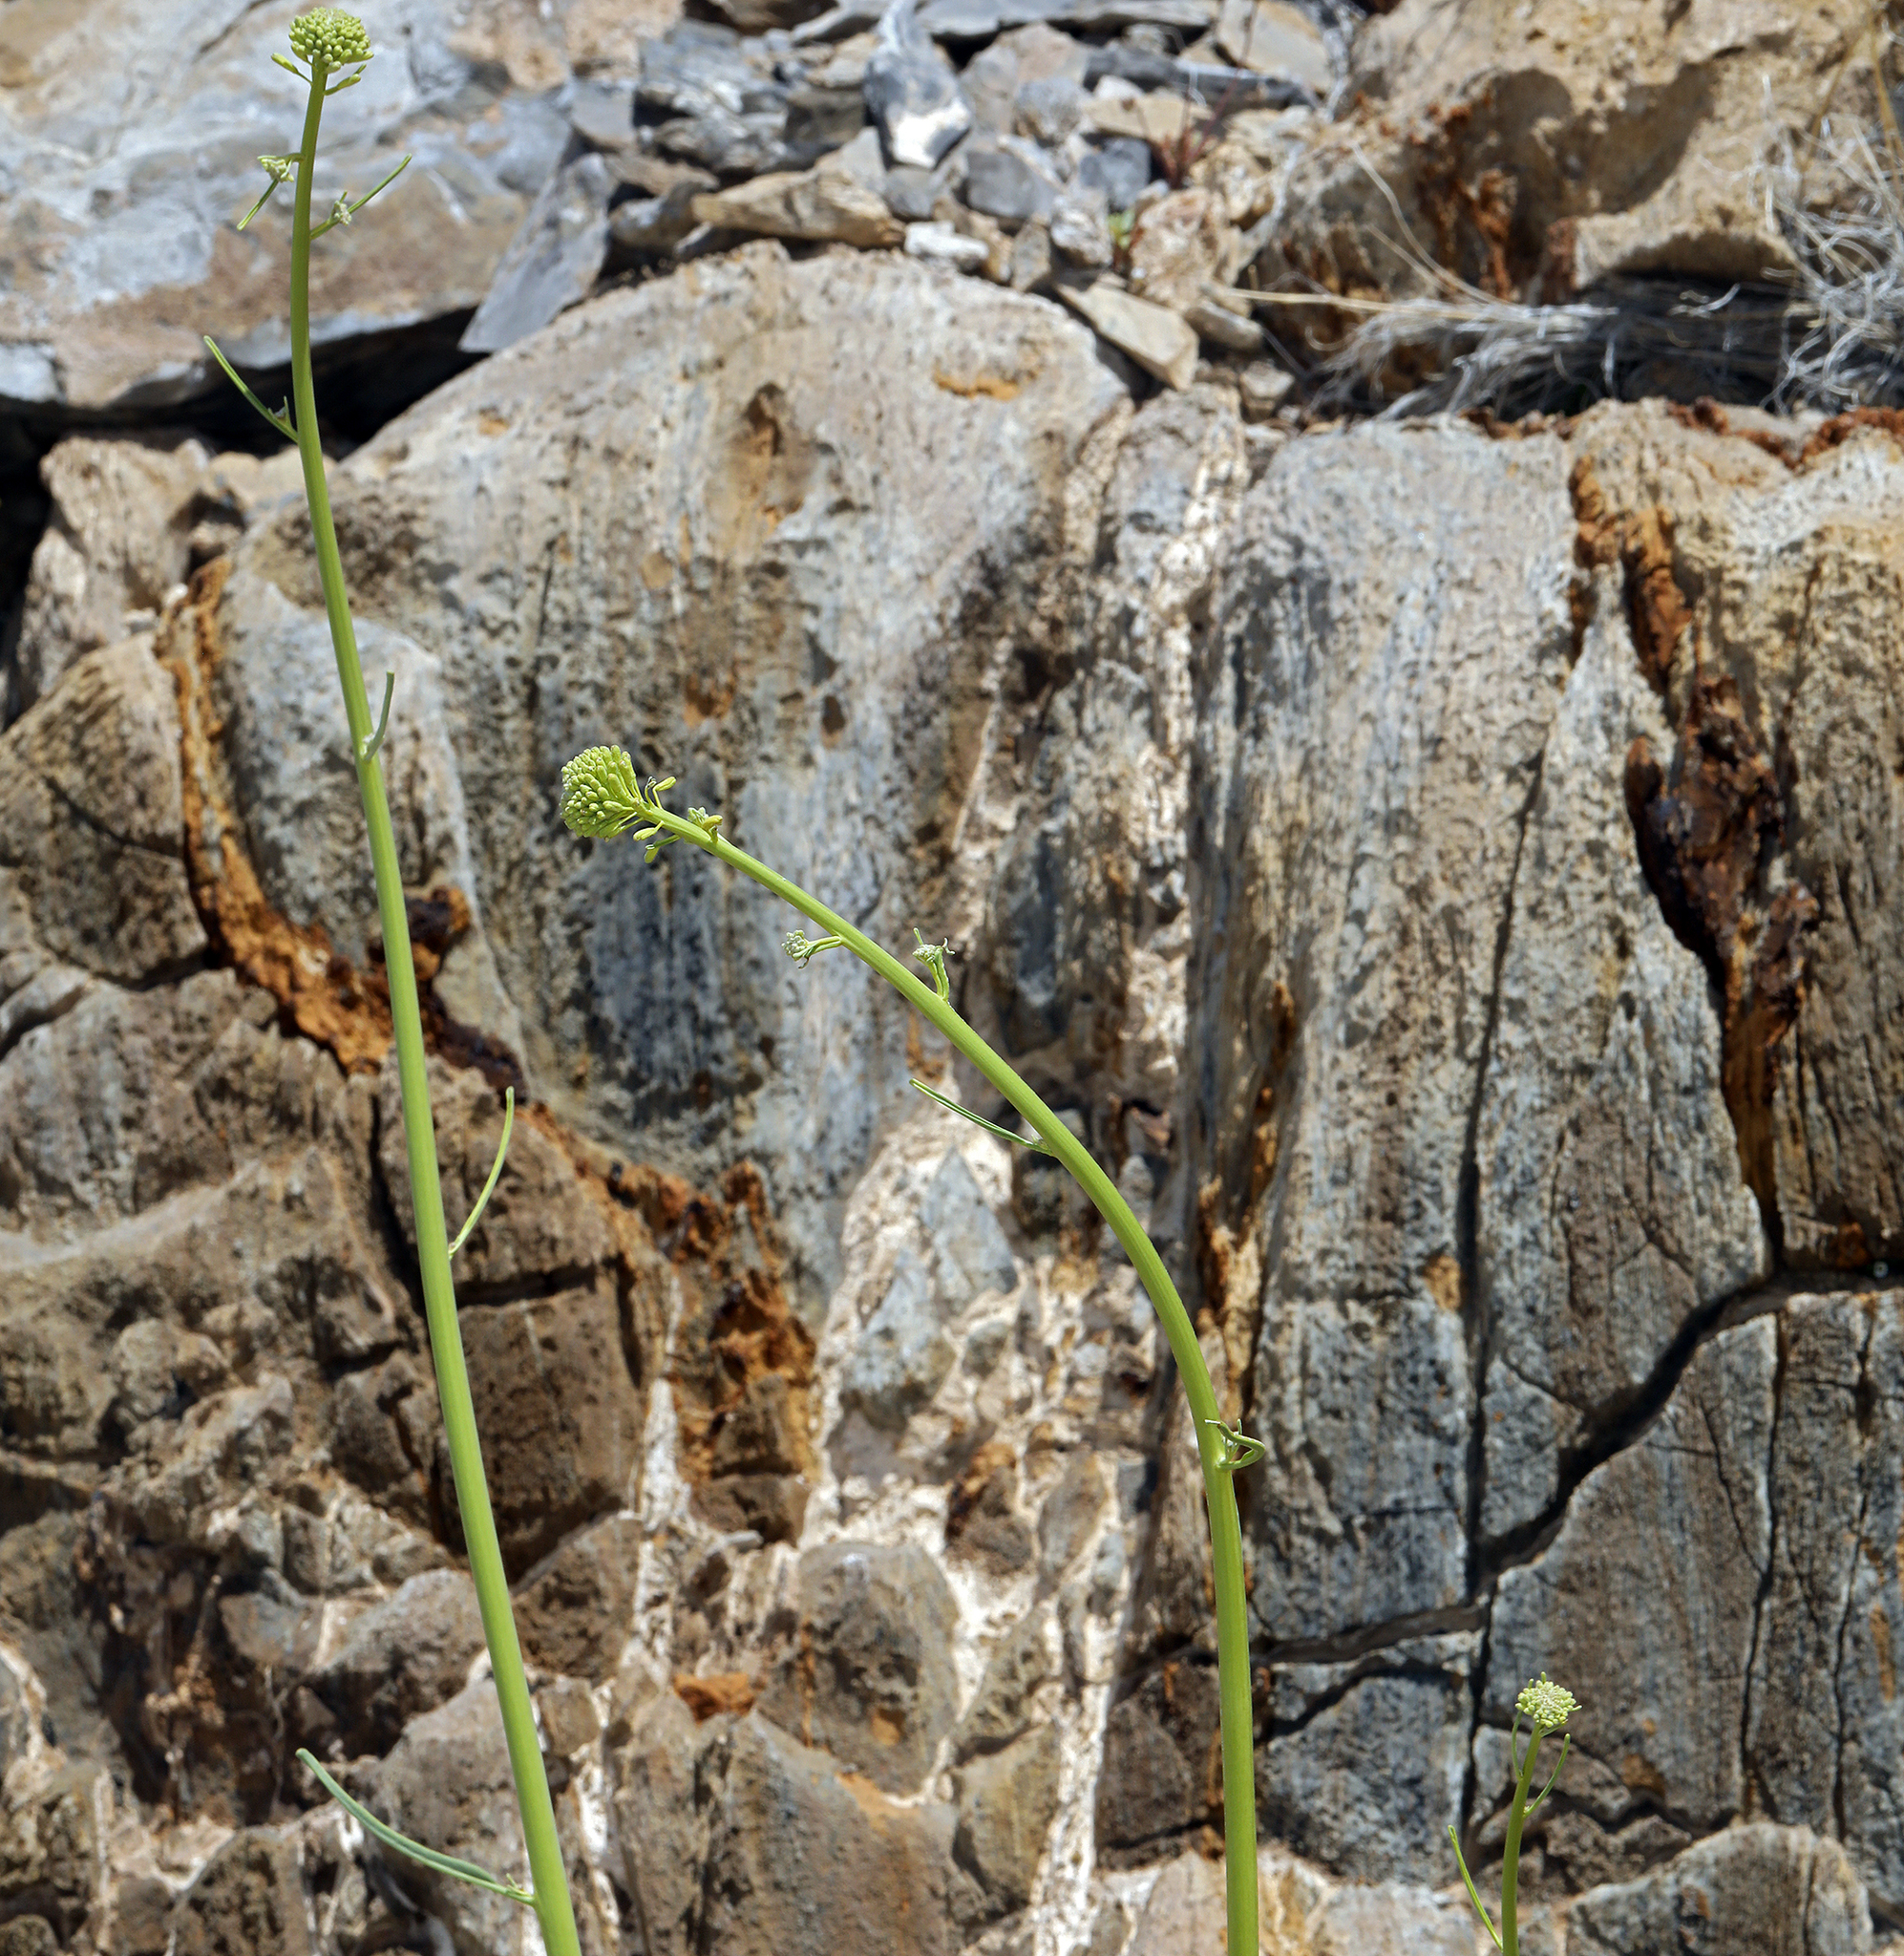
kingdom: Plantae
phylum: Tracheophyta
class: Magnoliopsida
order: Brassicales
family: Brassicaceae
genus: Stanleya
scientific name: Stanleya elata
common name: Panamint prince's plume
